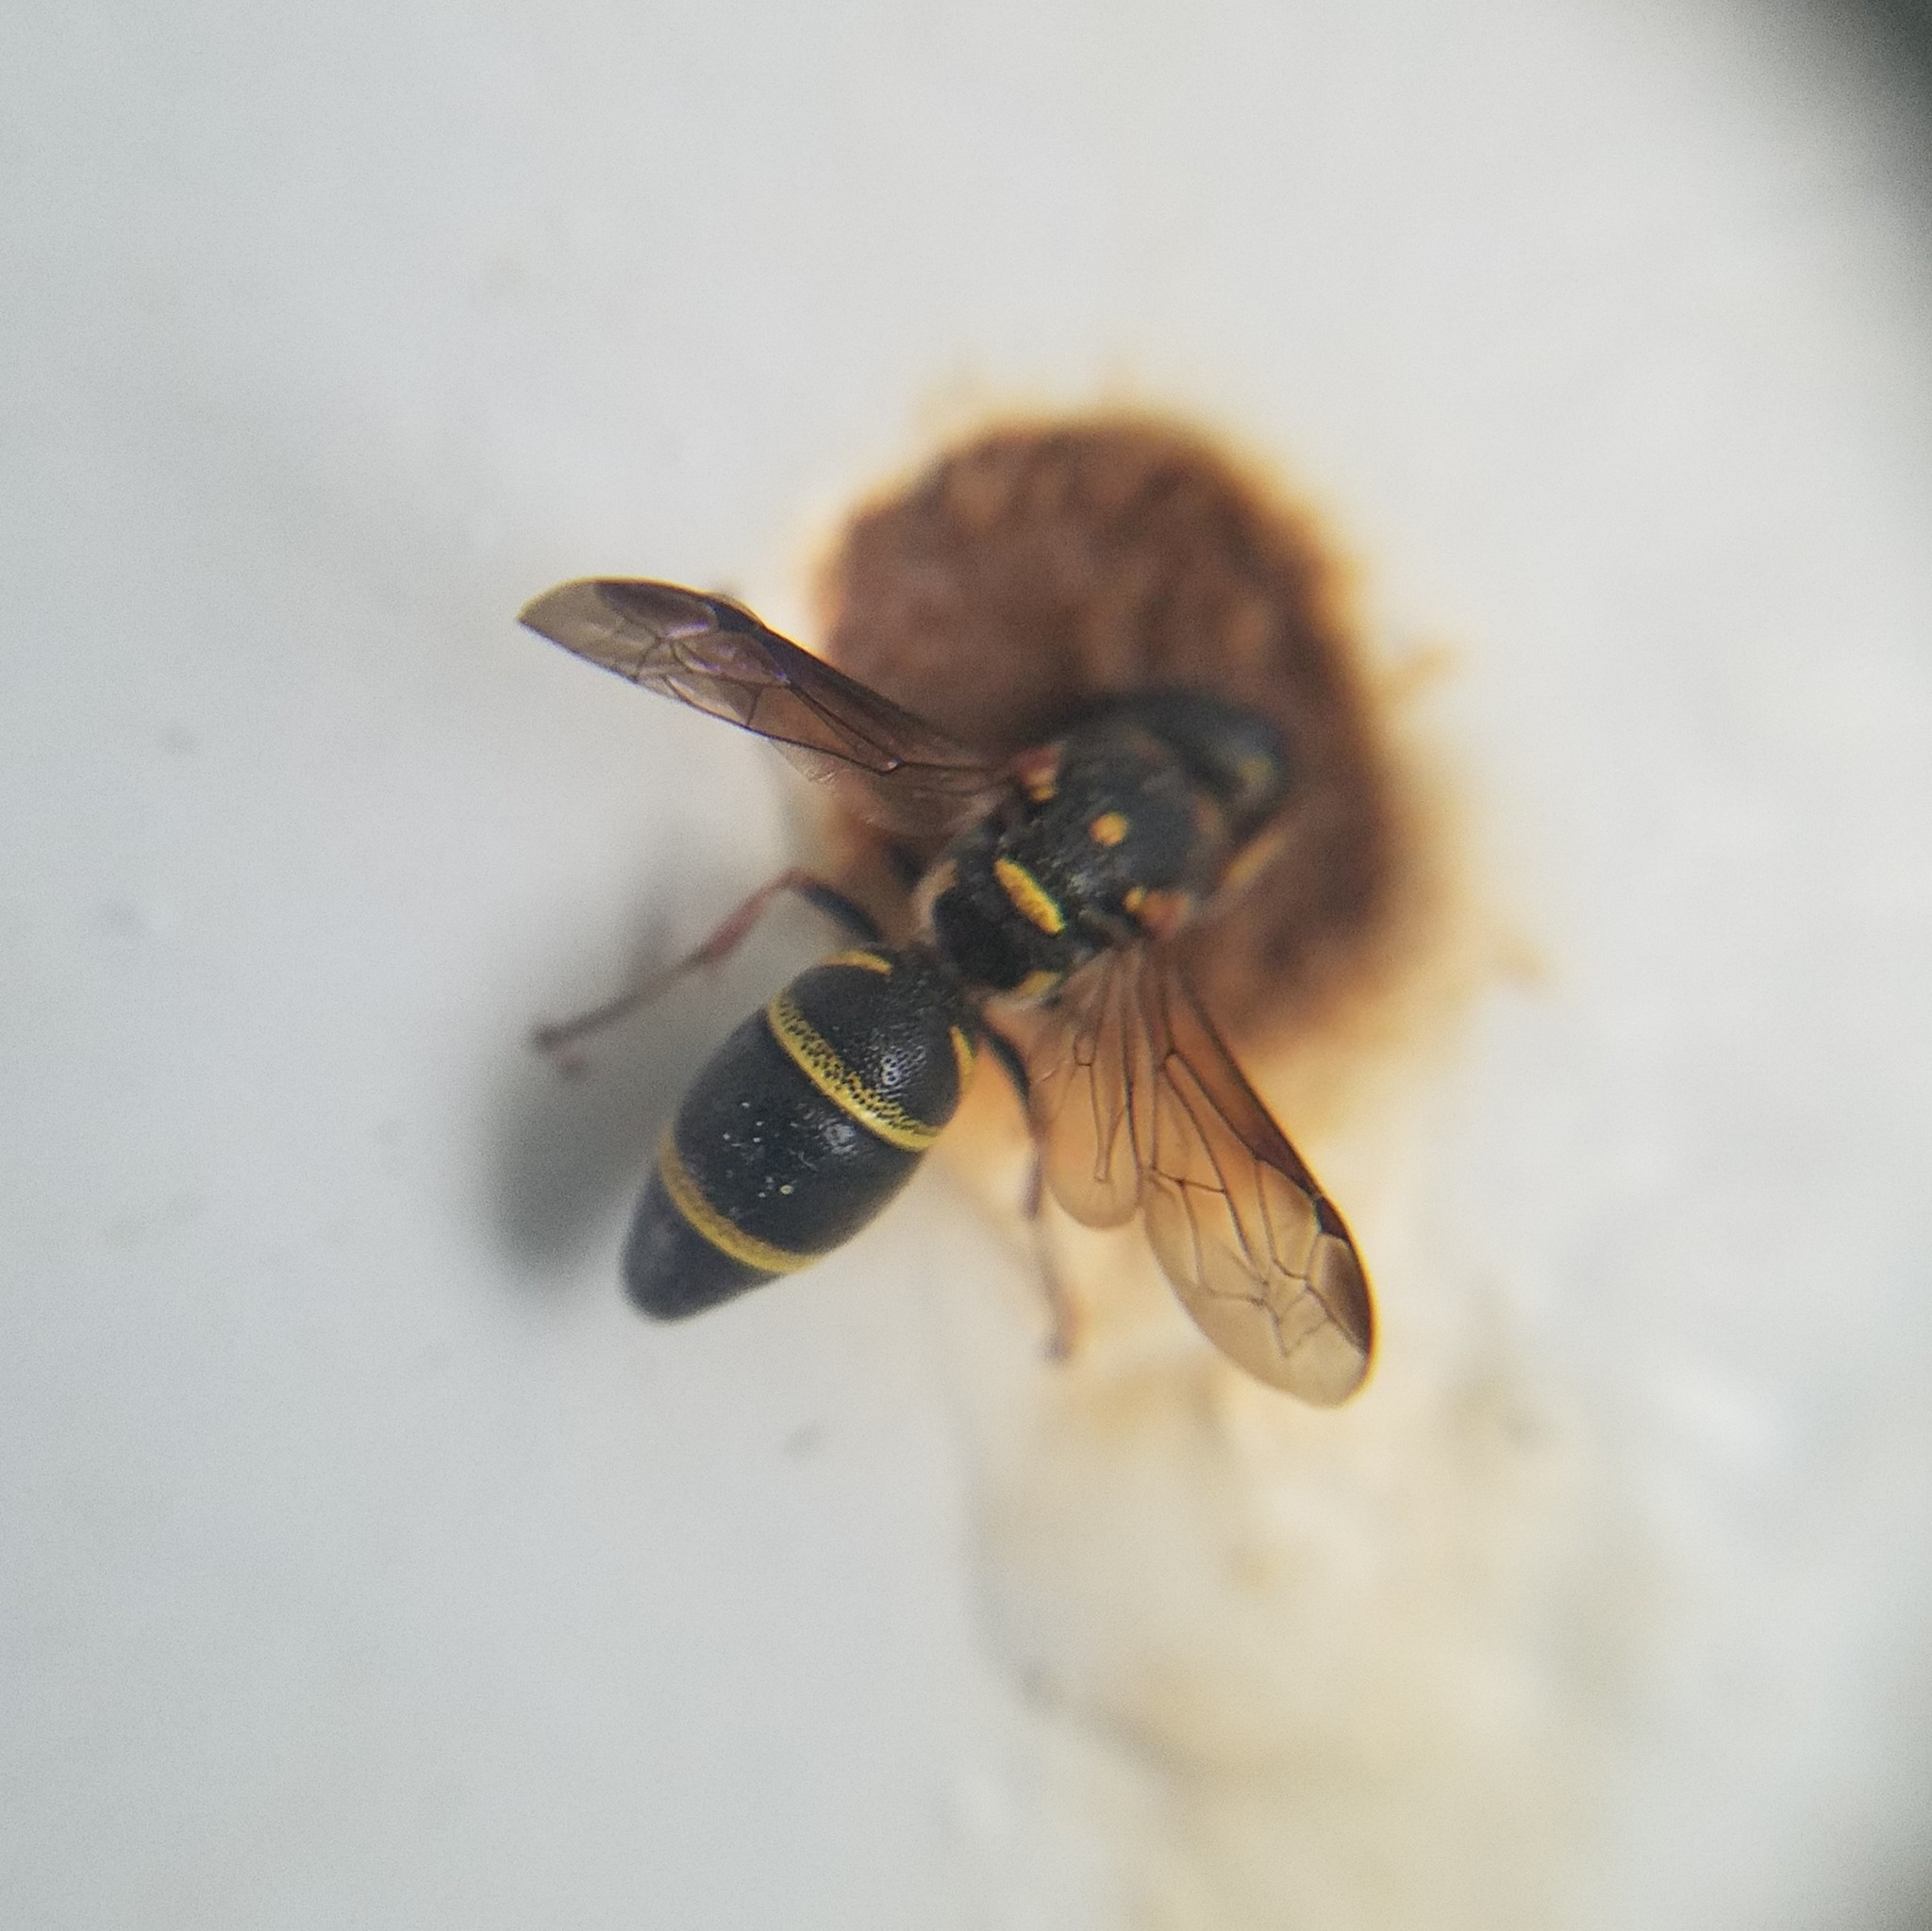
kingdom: Animalia
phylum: Arthropoda
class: Insecta
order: Hymenoptera
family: Eumenidae
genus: Parancistrocerus
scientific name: Parancistrocerus fulvipes
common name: Potter wasp
